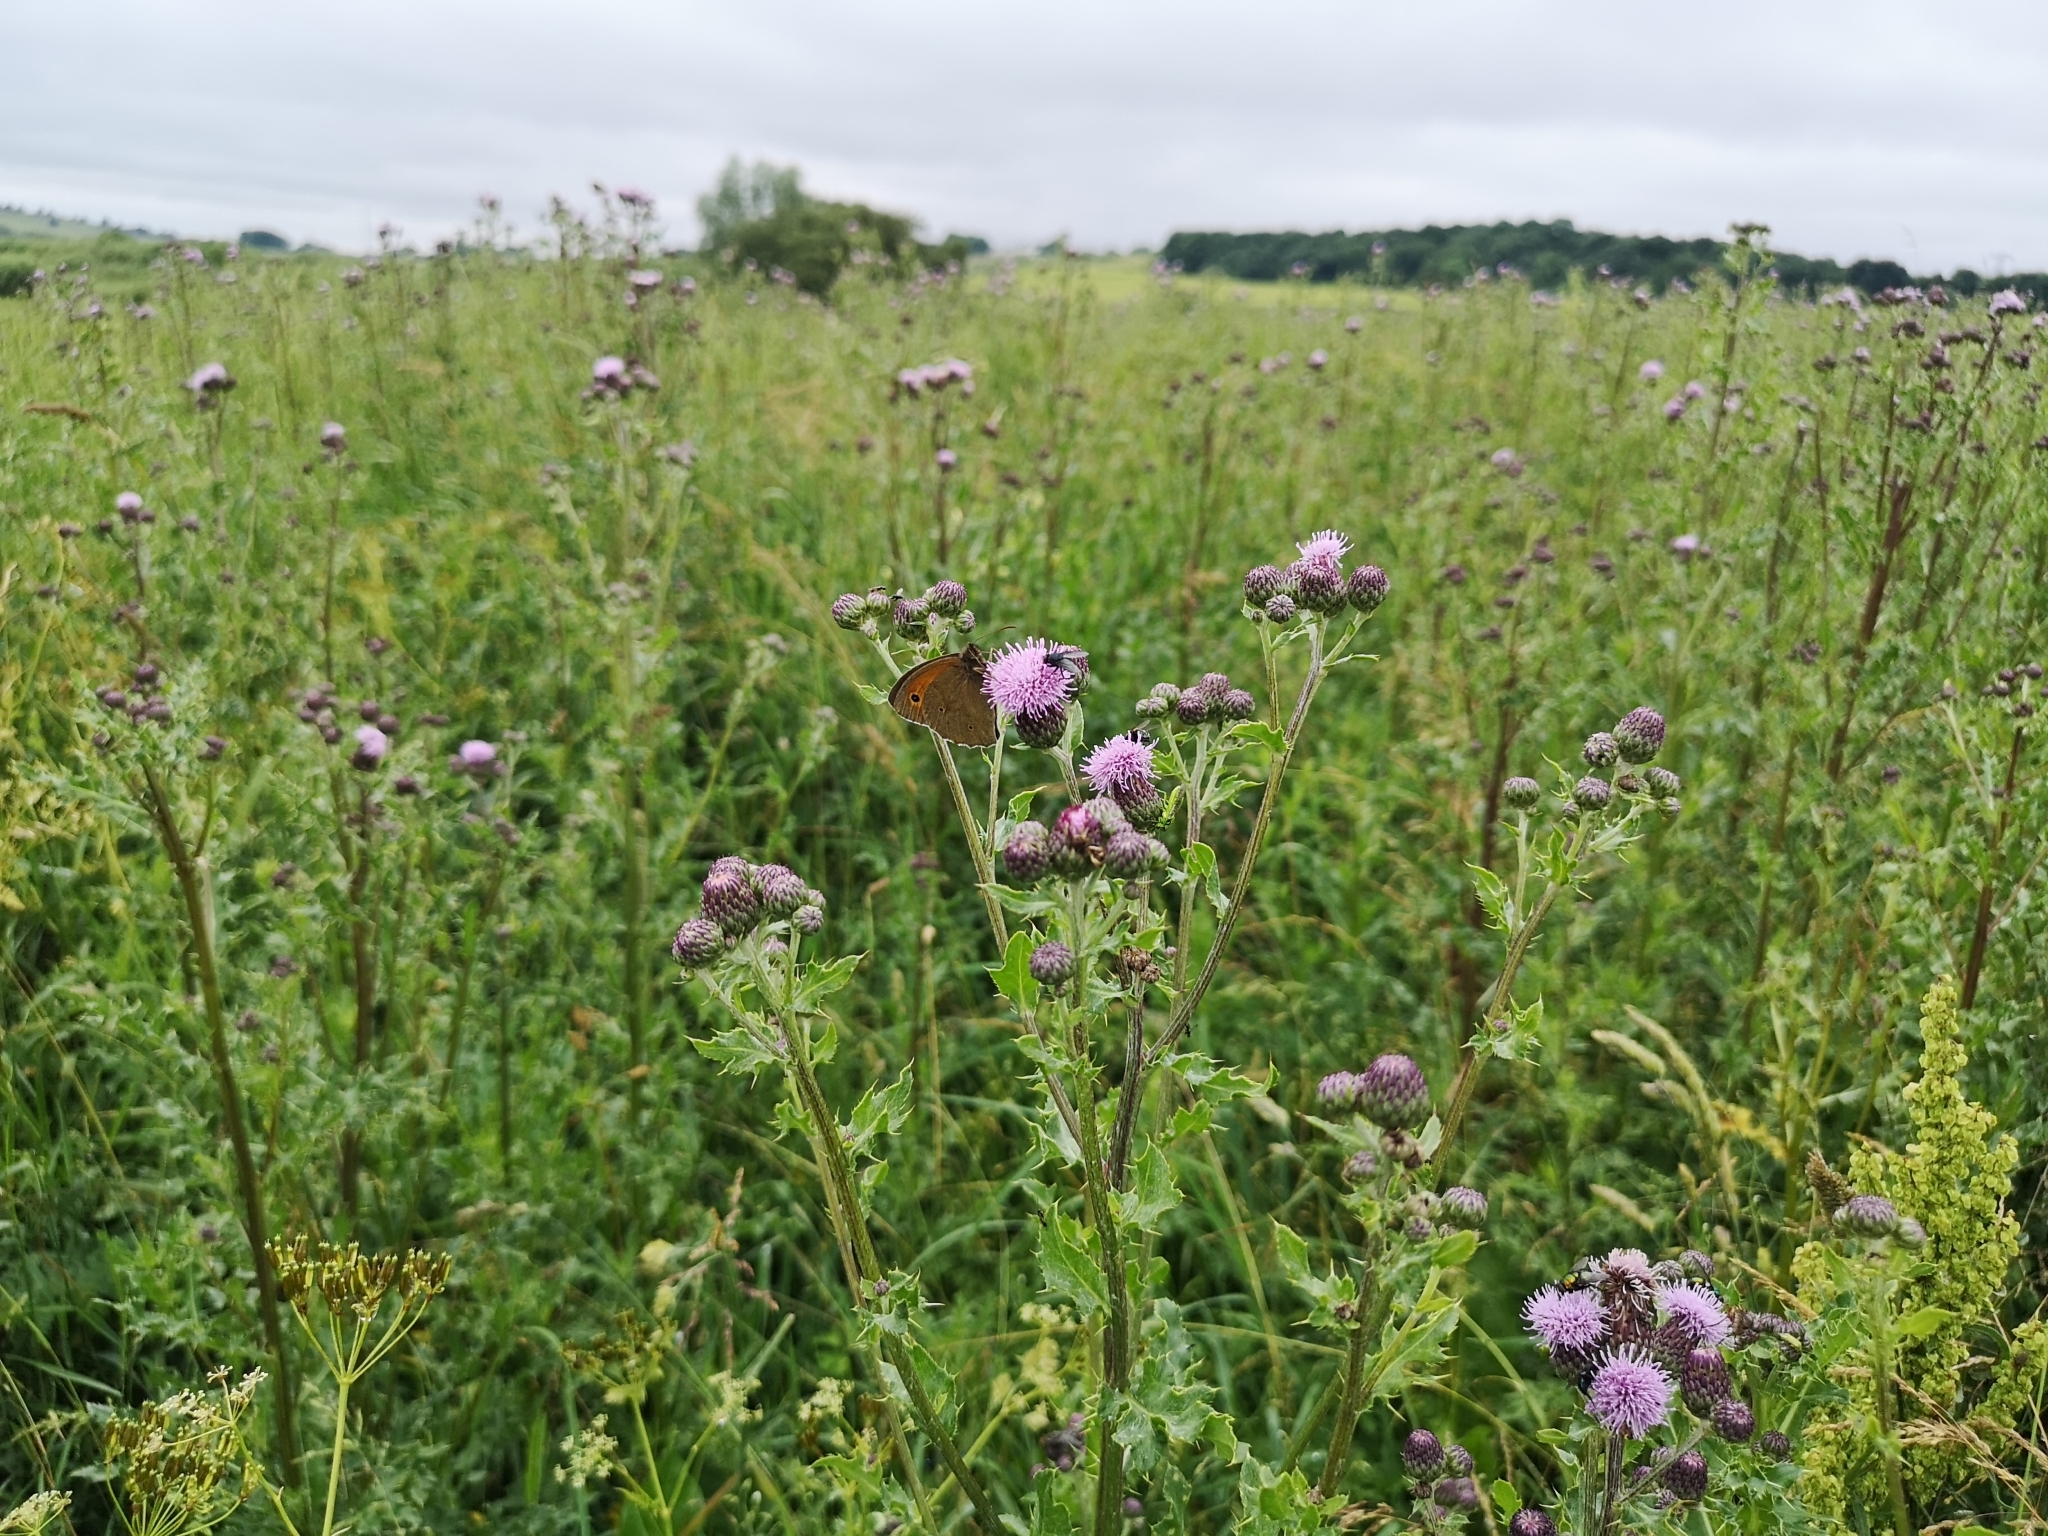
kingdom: Plantae
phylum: Tracheophyta
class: Magnoliopsida
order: Asterales
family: Asteraceae
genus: Cirsium
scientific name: Cirsium arvense
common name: Creeping thistle
